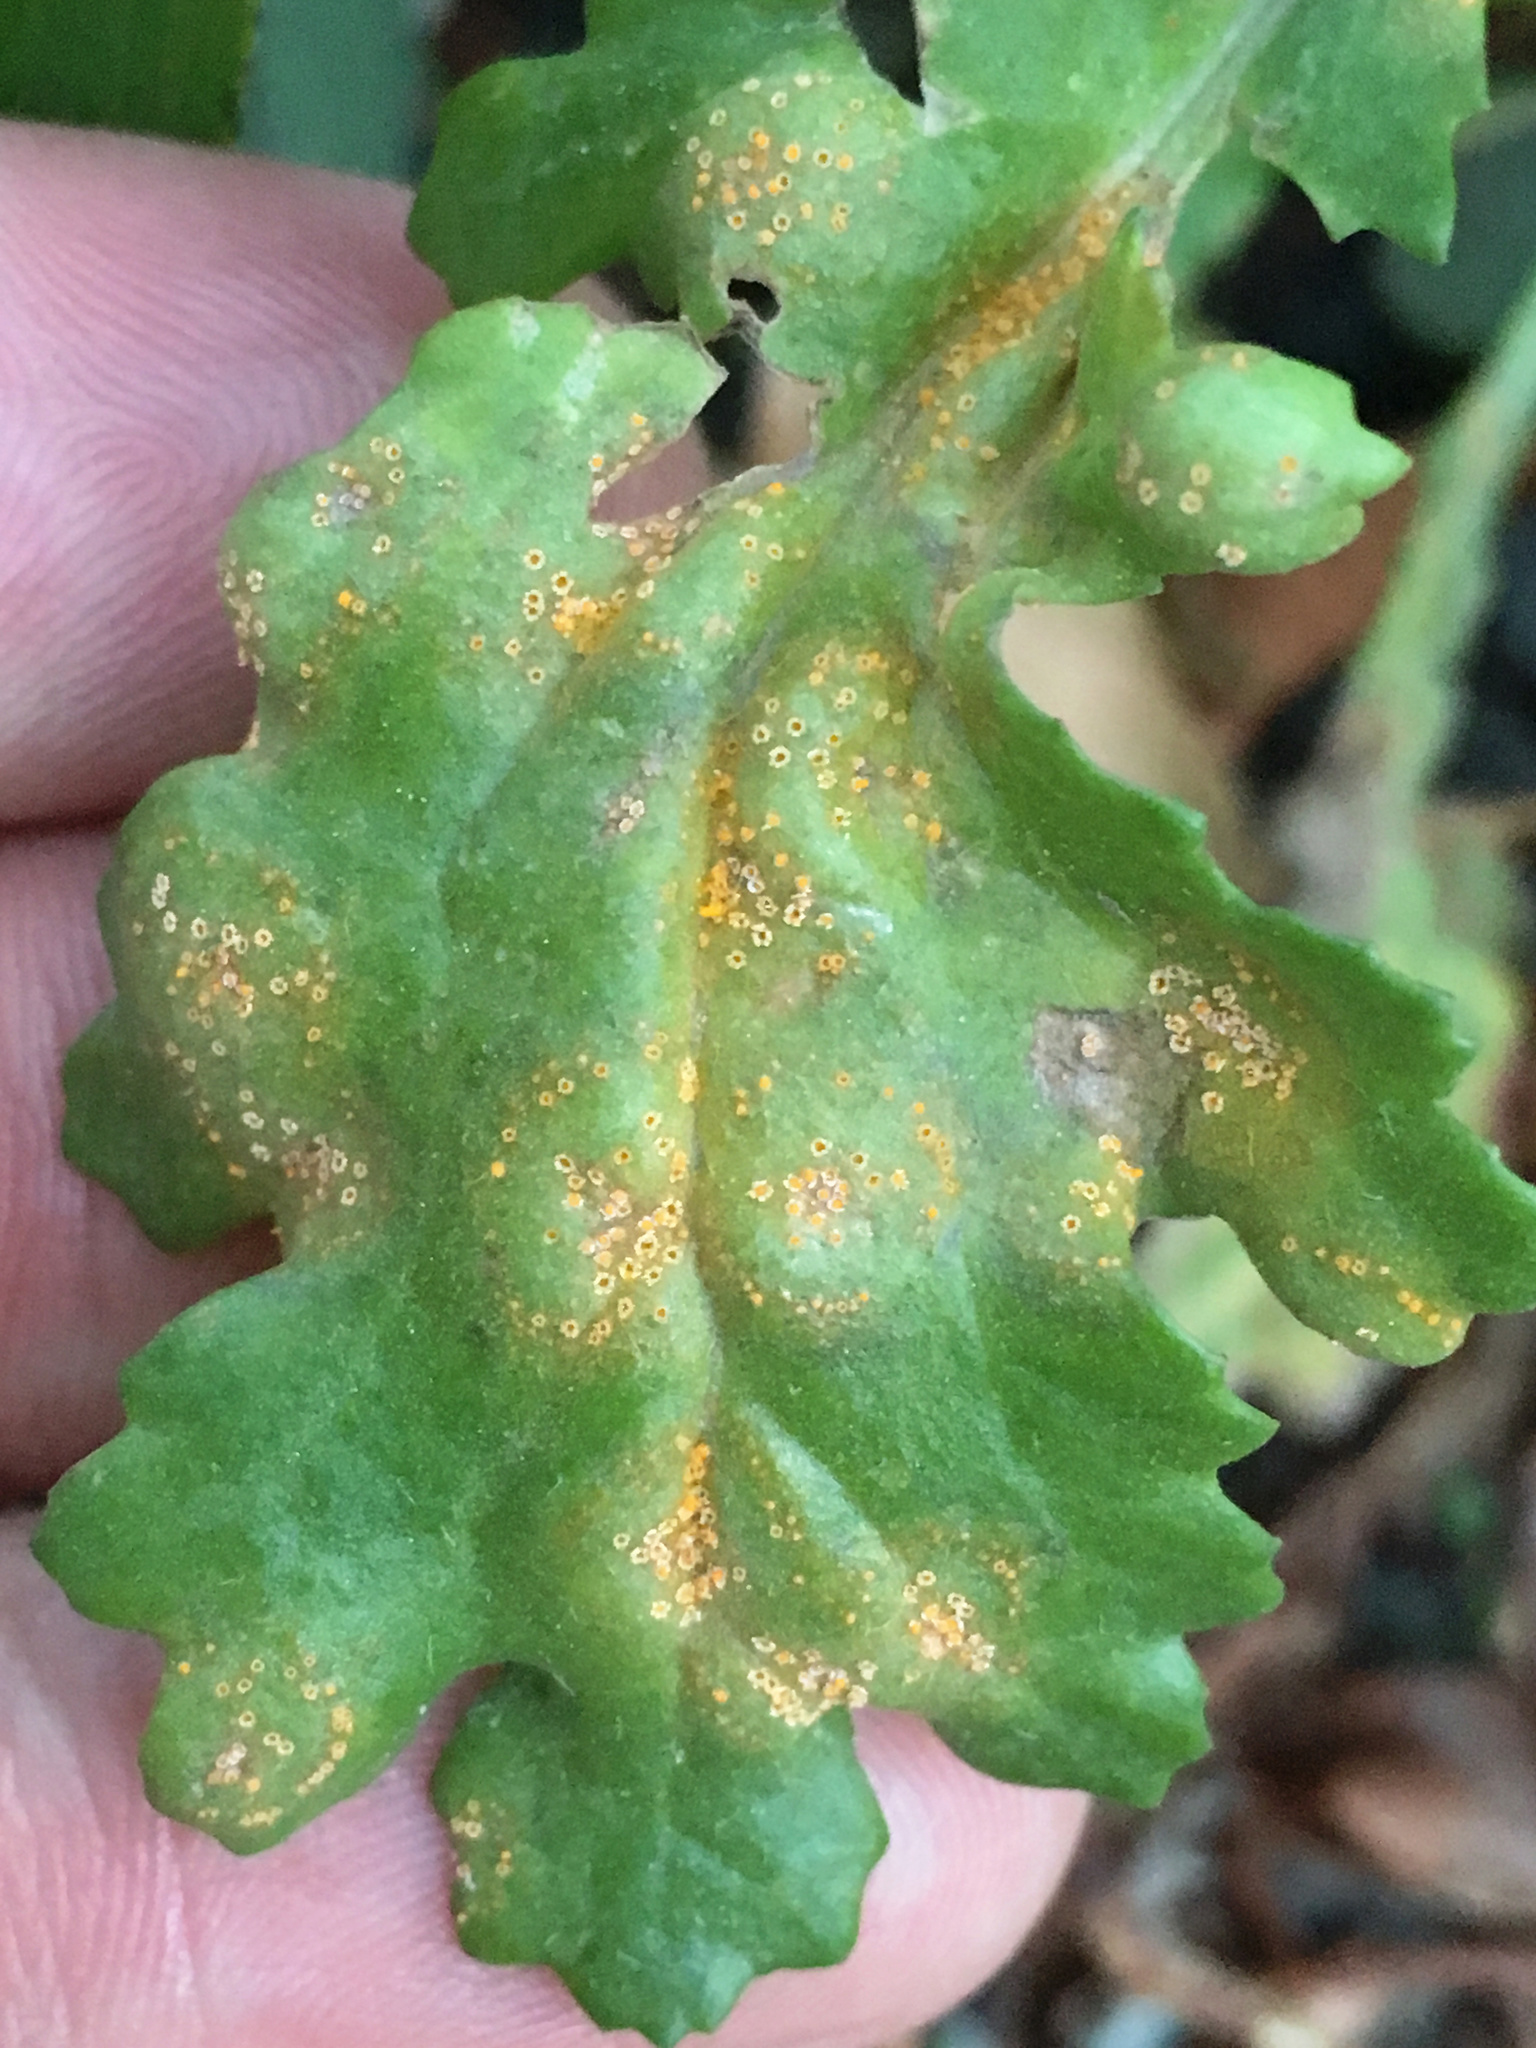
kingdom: Fungi
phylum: Basidiomycota
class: Pucciniomycetes
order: Pucciniales
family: Pucciniaceae
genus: Puccinia
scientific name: Puccinia lagenophorae
